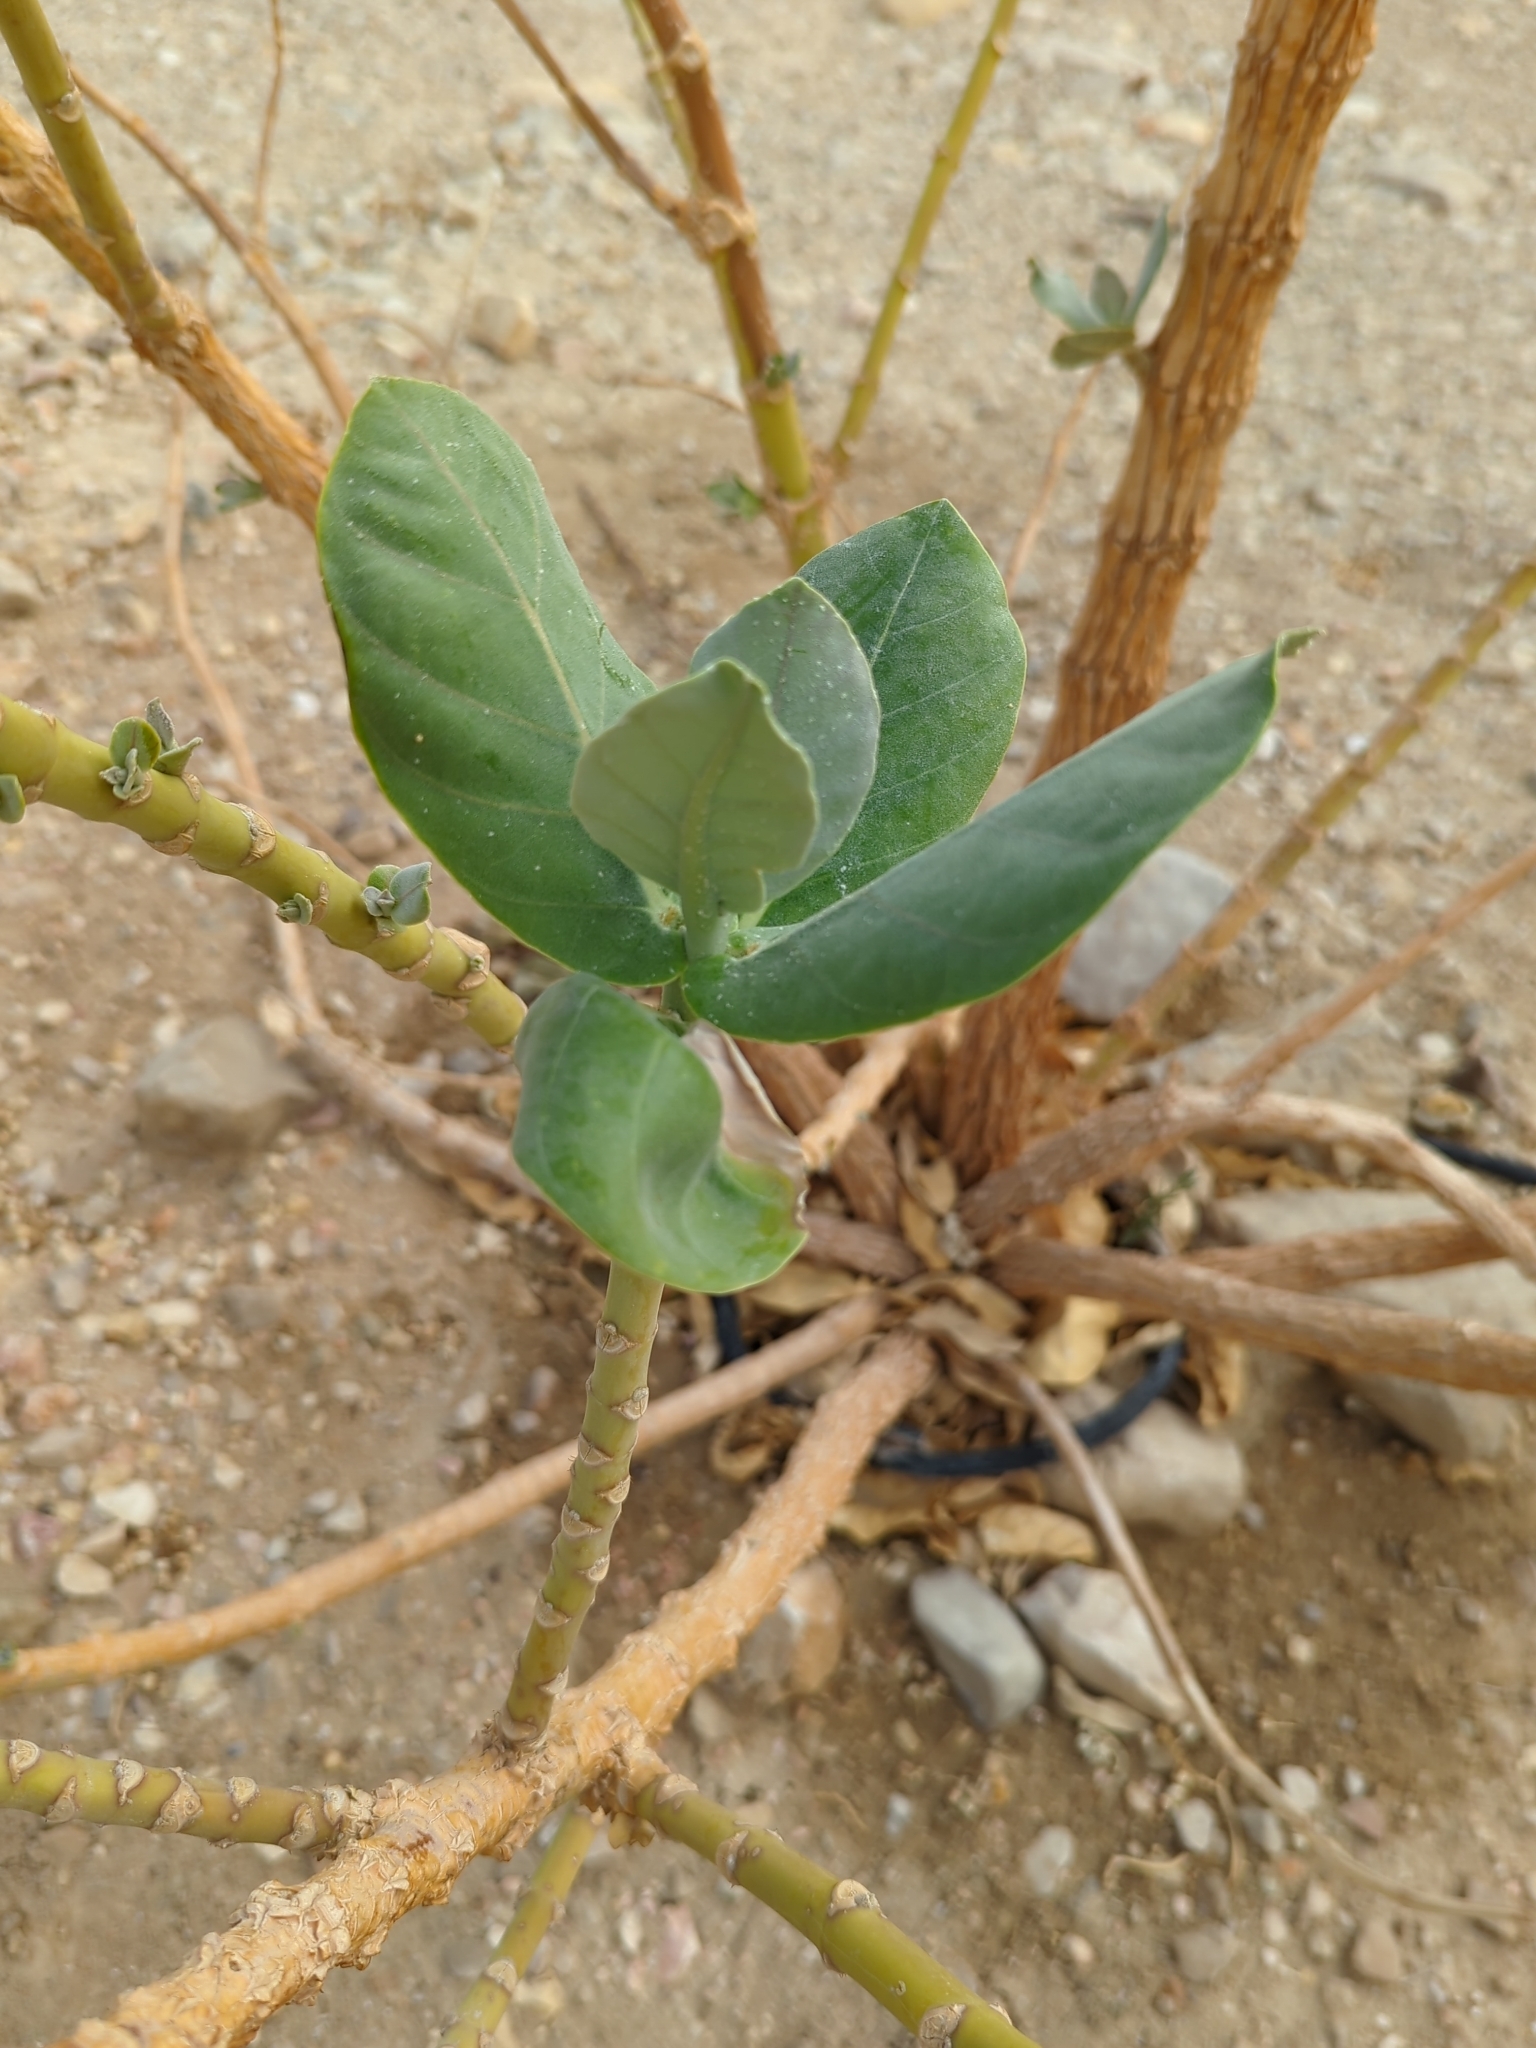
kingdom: Plantae
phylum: Tracheophyta
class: Magnoliopsida
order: Gentianales
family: Apocynaceae
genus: Calotropis
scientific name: Calotropis procera
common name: Roostertree
